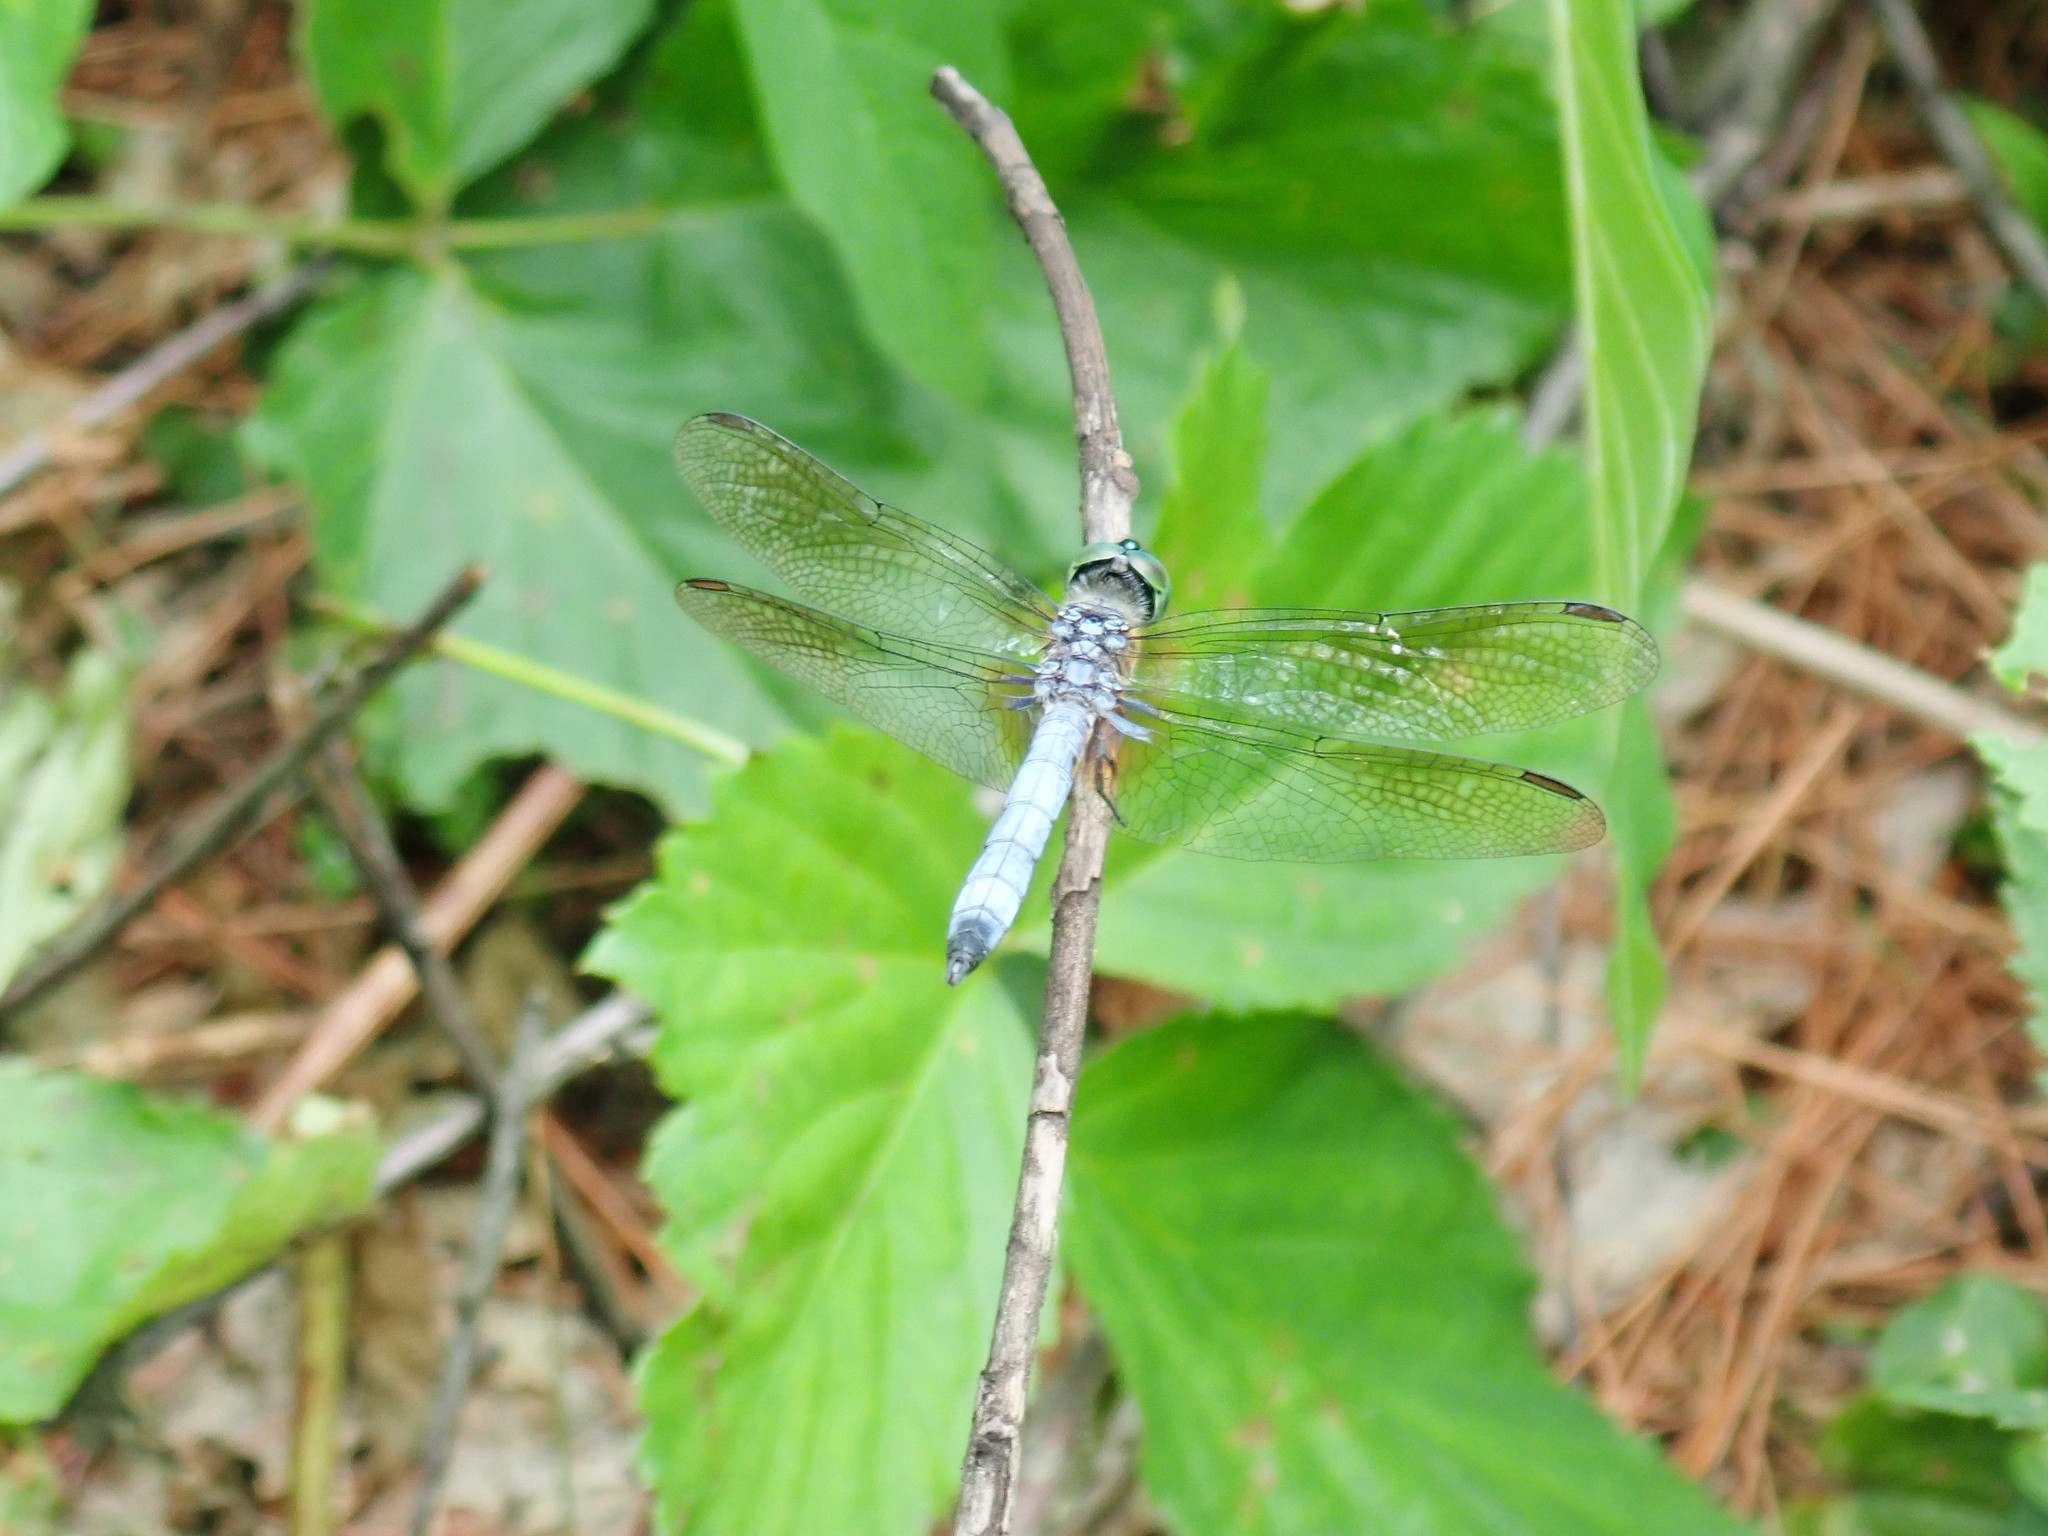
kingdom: Animalia
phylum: Arthropoda
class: Insecta
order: Odonata
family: Libellulidae
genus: Pachydiplax
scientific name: Pachydiplax longipennis
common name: Blue dasher
